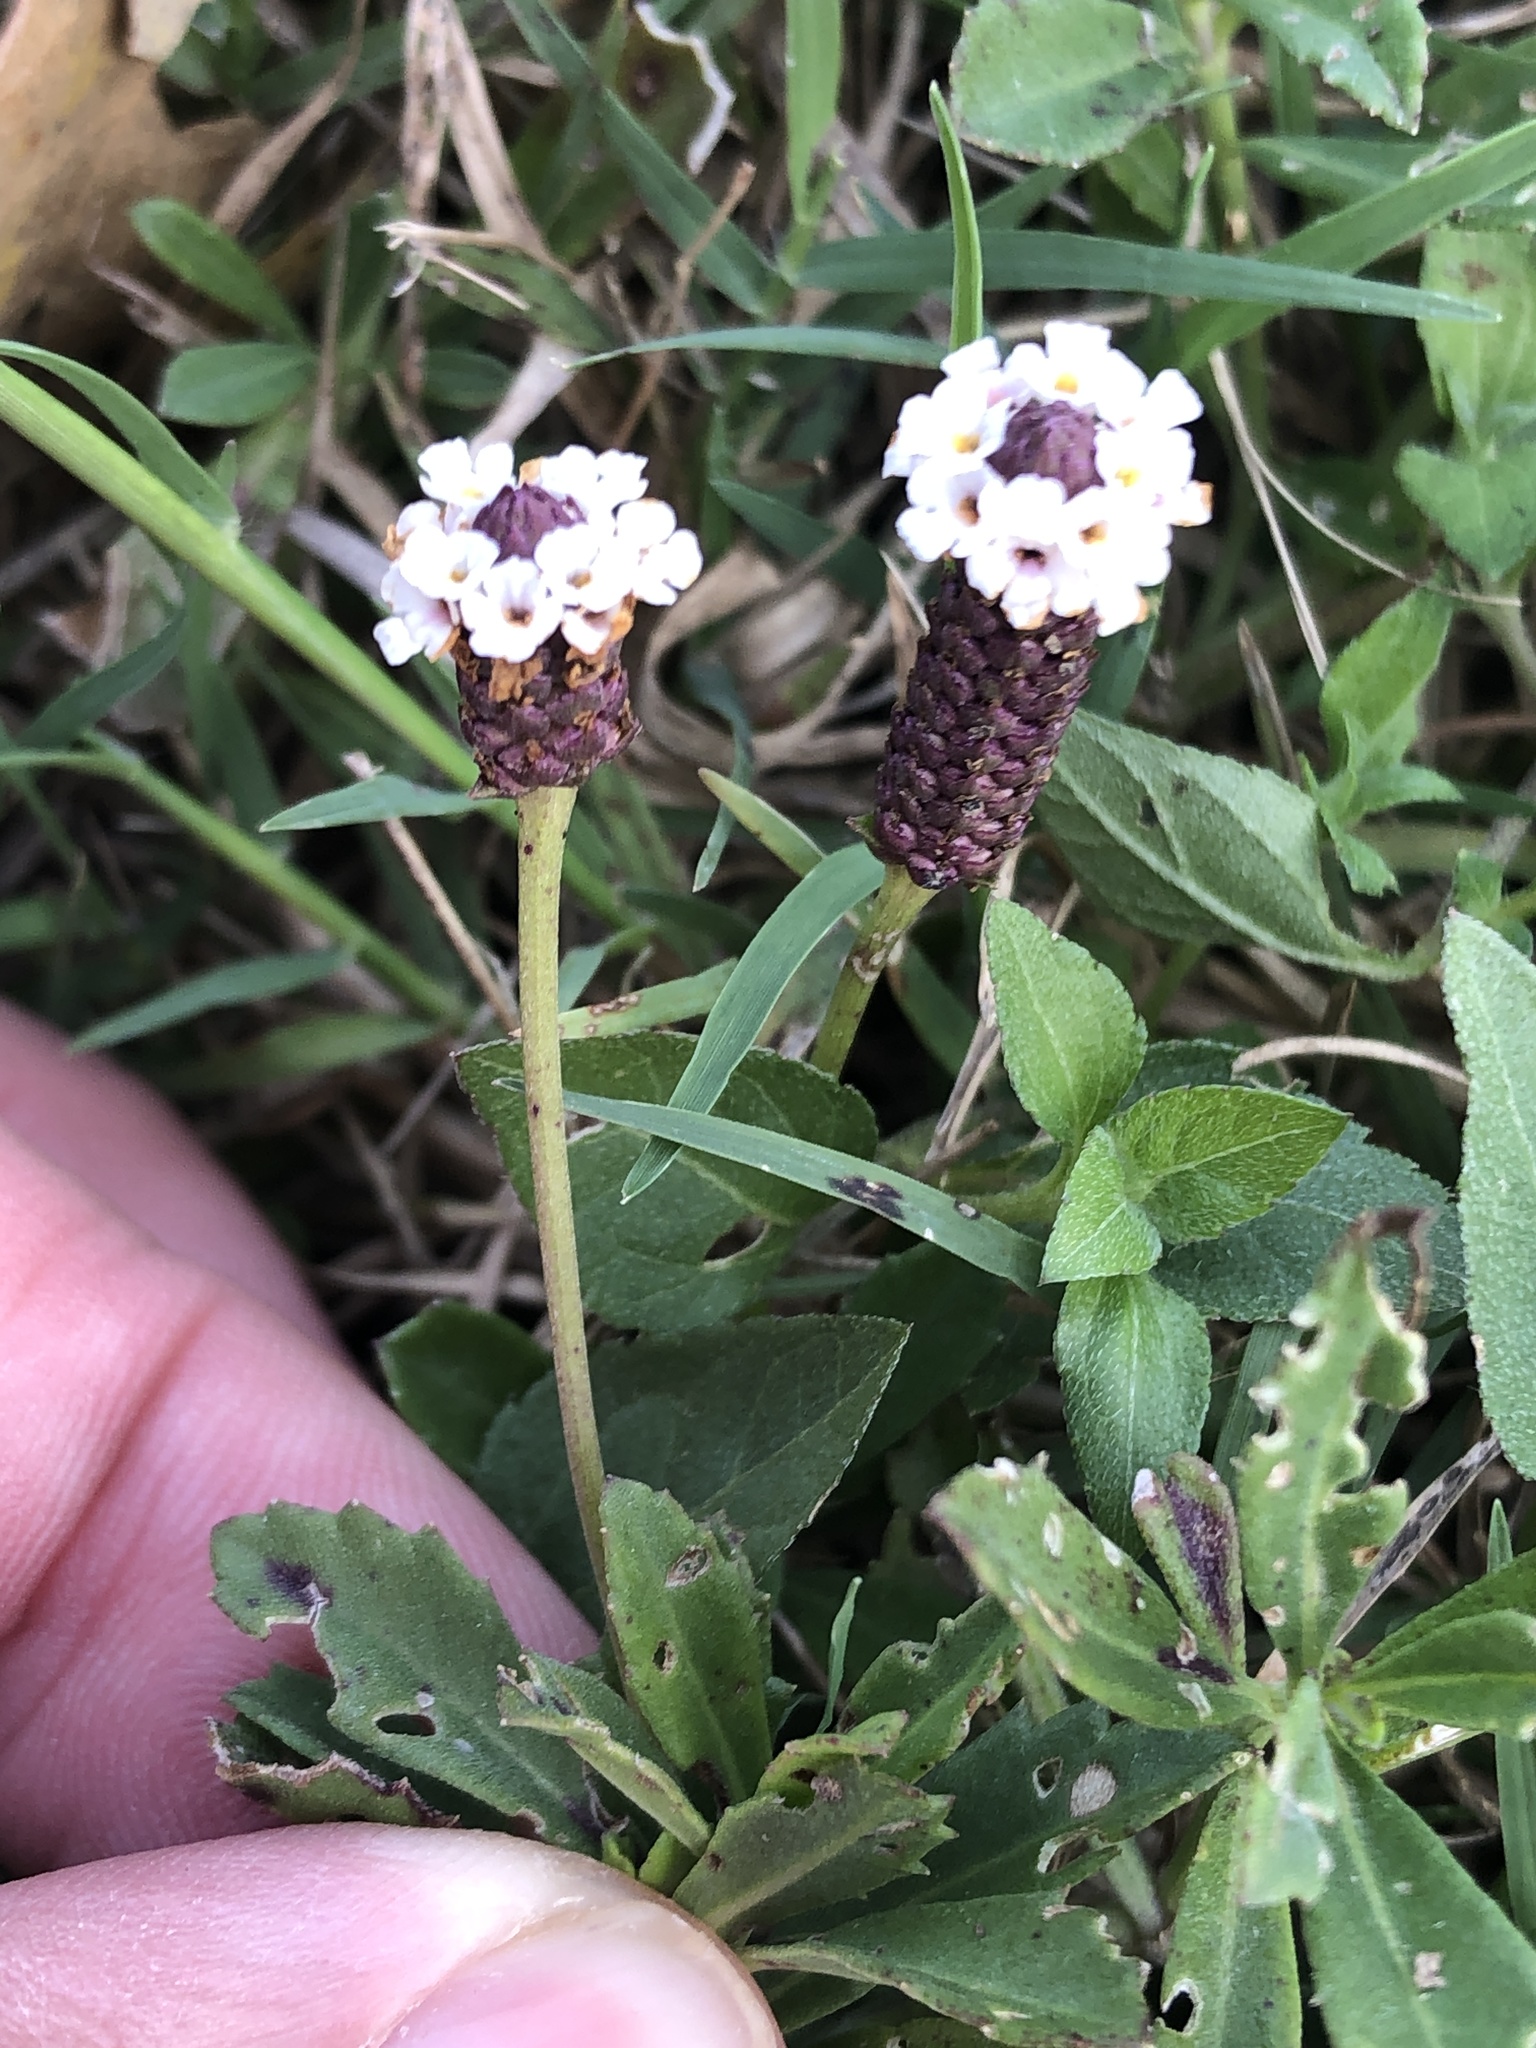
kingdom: Plantae
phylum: Tracheophyta
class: Magnoliopsida
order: Lamiales
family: Verbenaceae
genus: Phyla
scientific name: Phyla nodiflora
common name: Frogfruit
